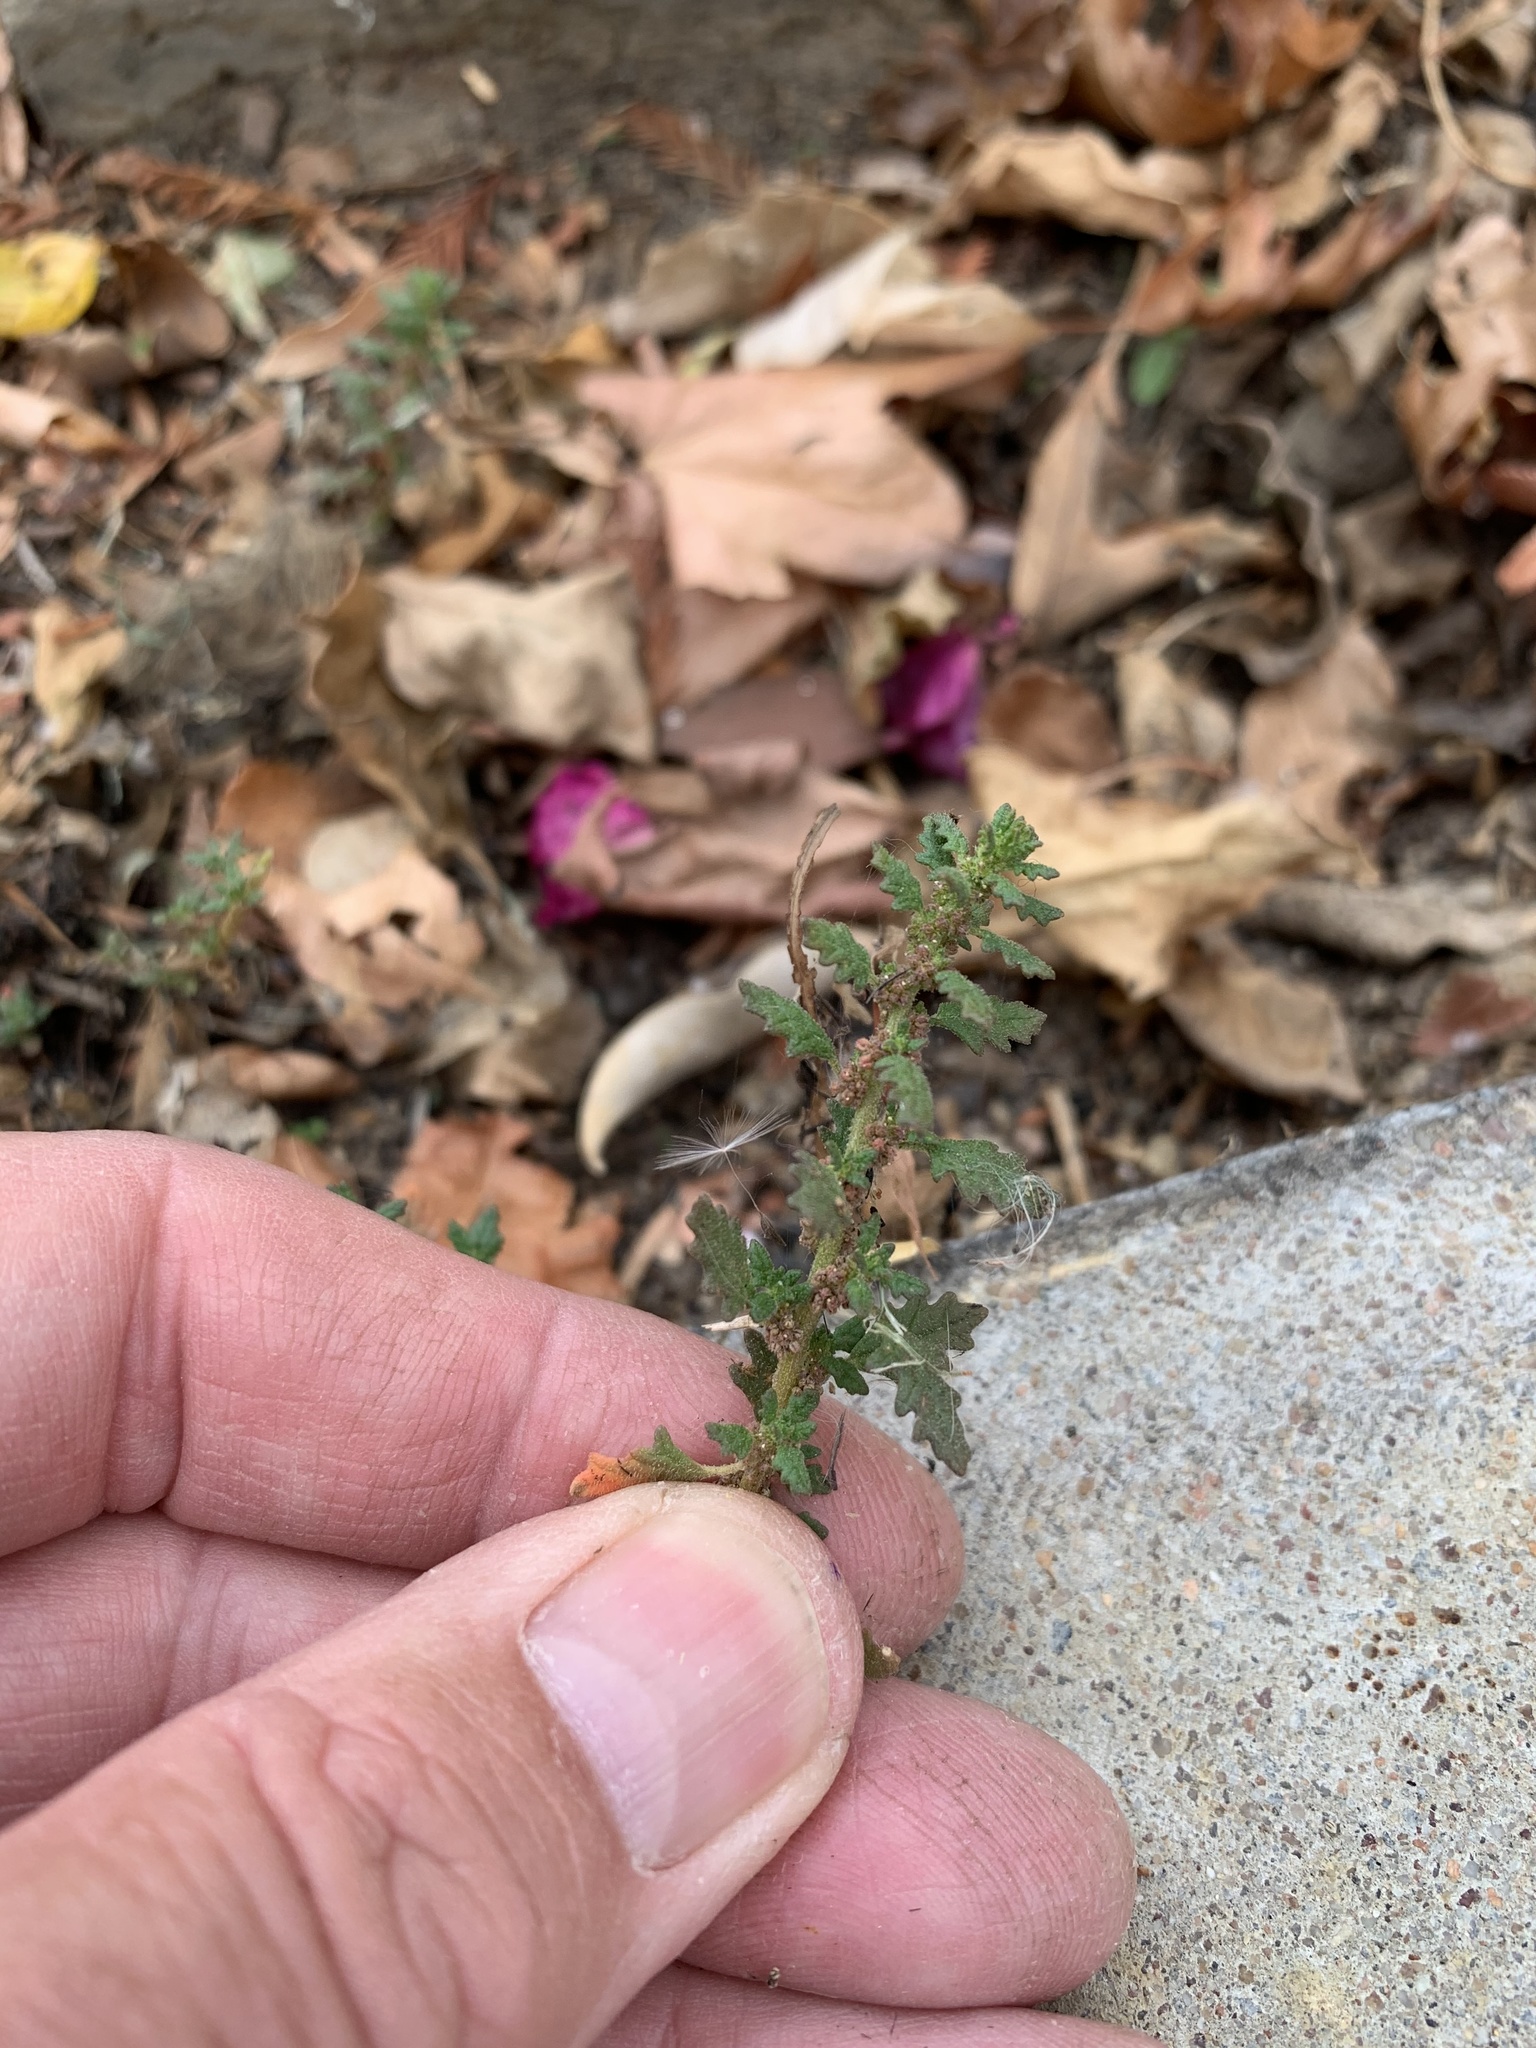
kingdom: Plantae
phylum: Tracheophyta
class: Magnoliopsida
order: Caryophyllales
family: Amaranthaceae
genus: Dysphania
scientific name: Dysphania pumilio
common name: Clammy goosefoot
